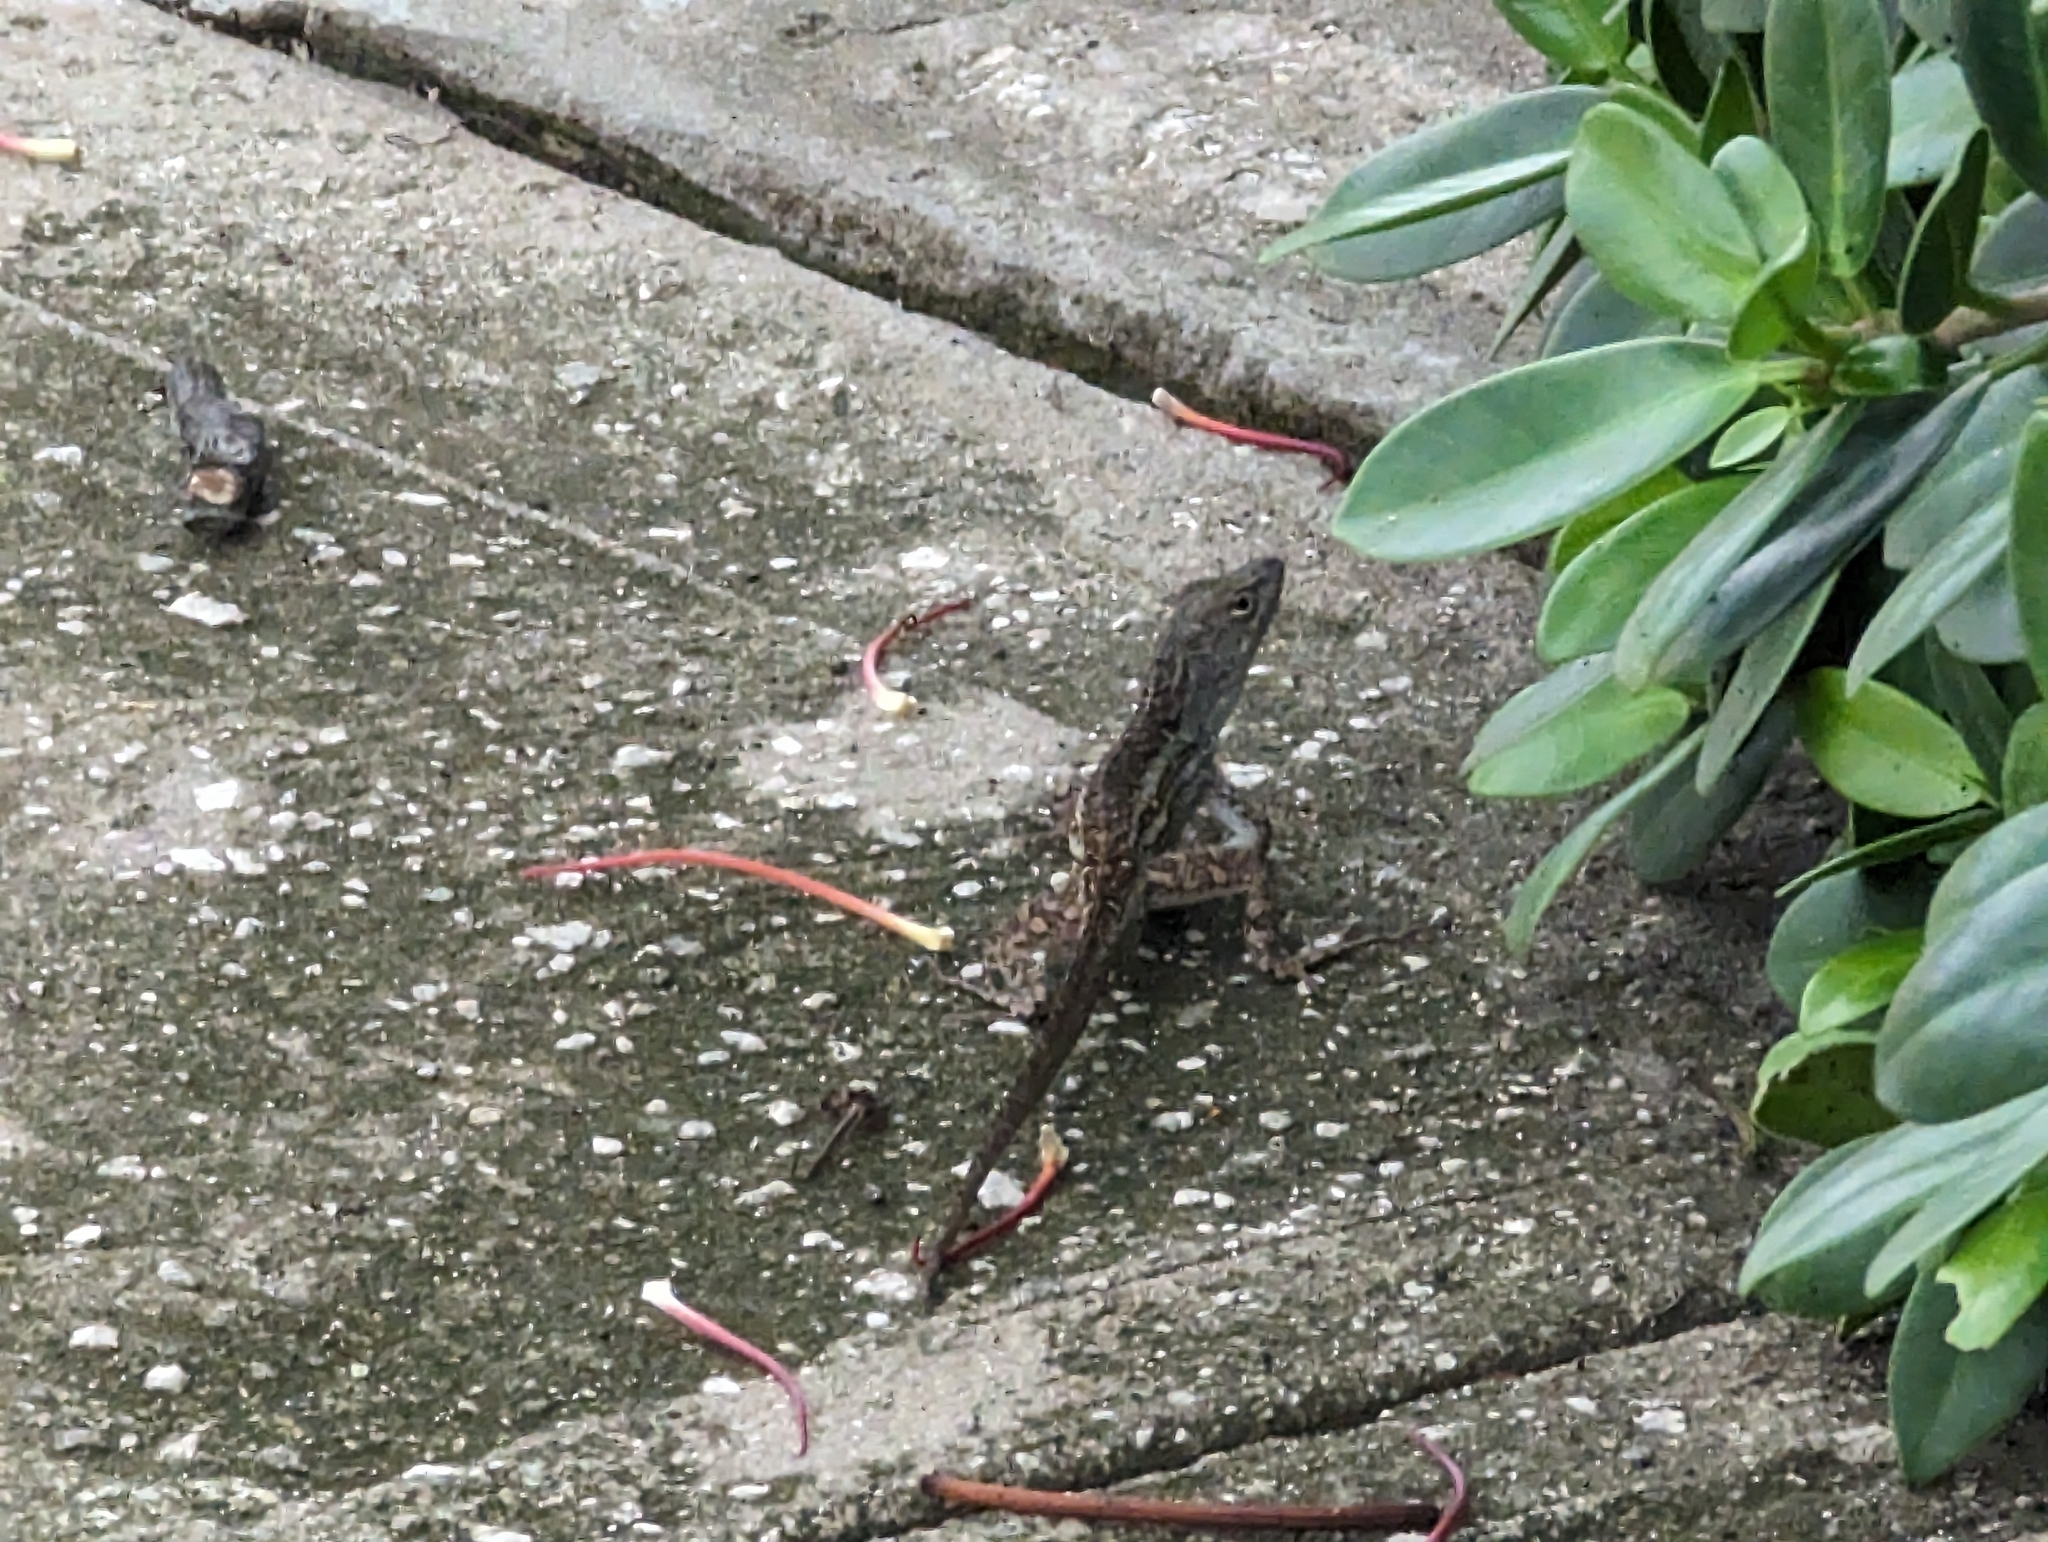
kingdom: Animalia
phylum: Chordata
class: Squamata
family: Dactyloidae
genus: Anolis
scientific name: Anolis sagrei
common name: Brown anole
